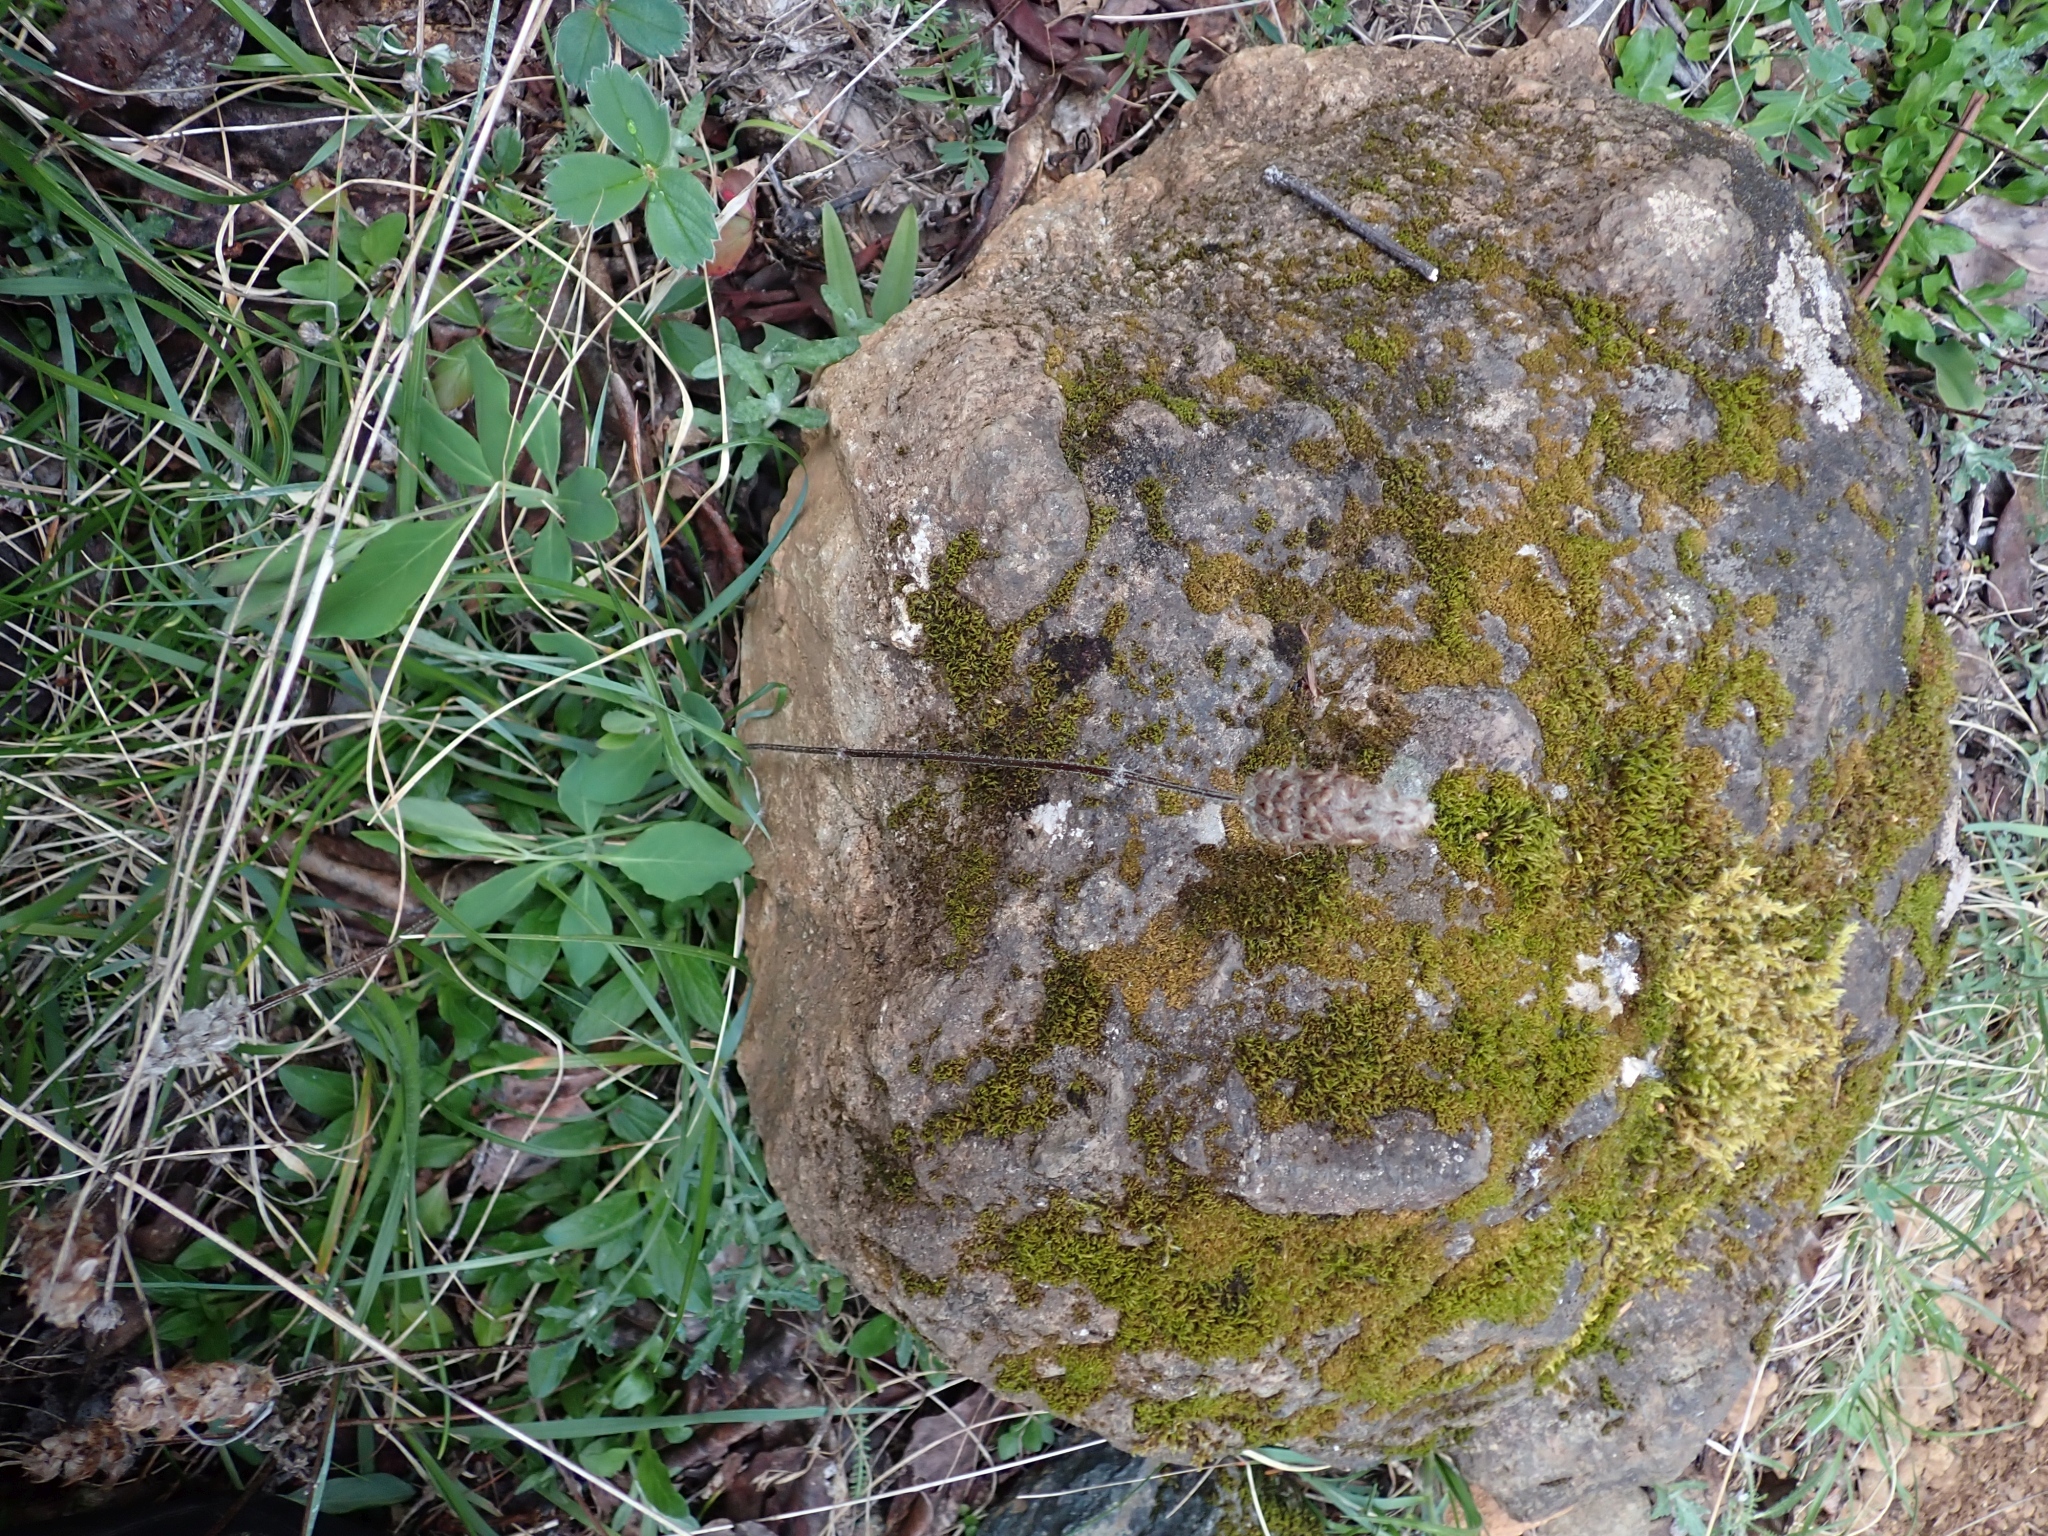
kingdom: Plantae
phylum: Tracheophyta
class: Magnoliopsida
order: Lamiales
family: Lamiaceae
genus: Prunella
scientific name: Prunella vulgaris
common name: Heal-all
